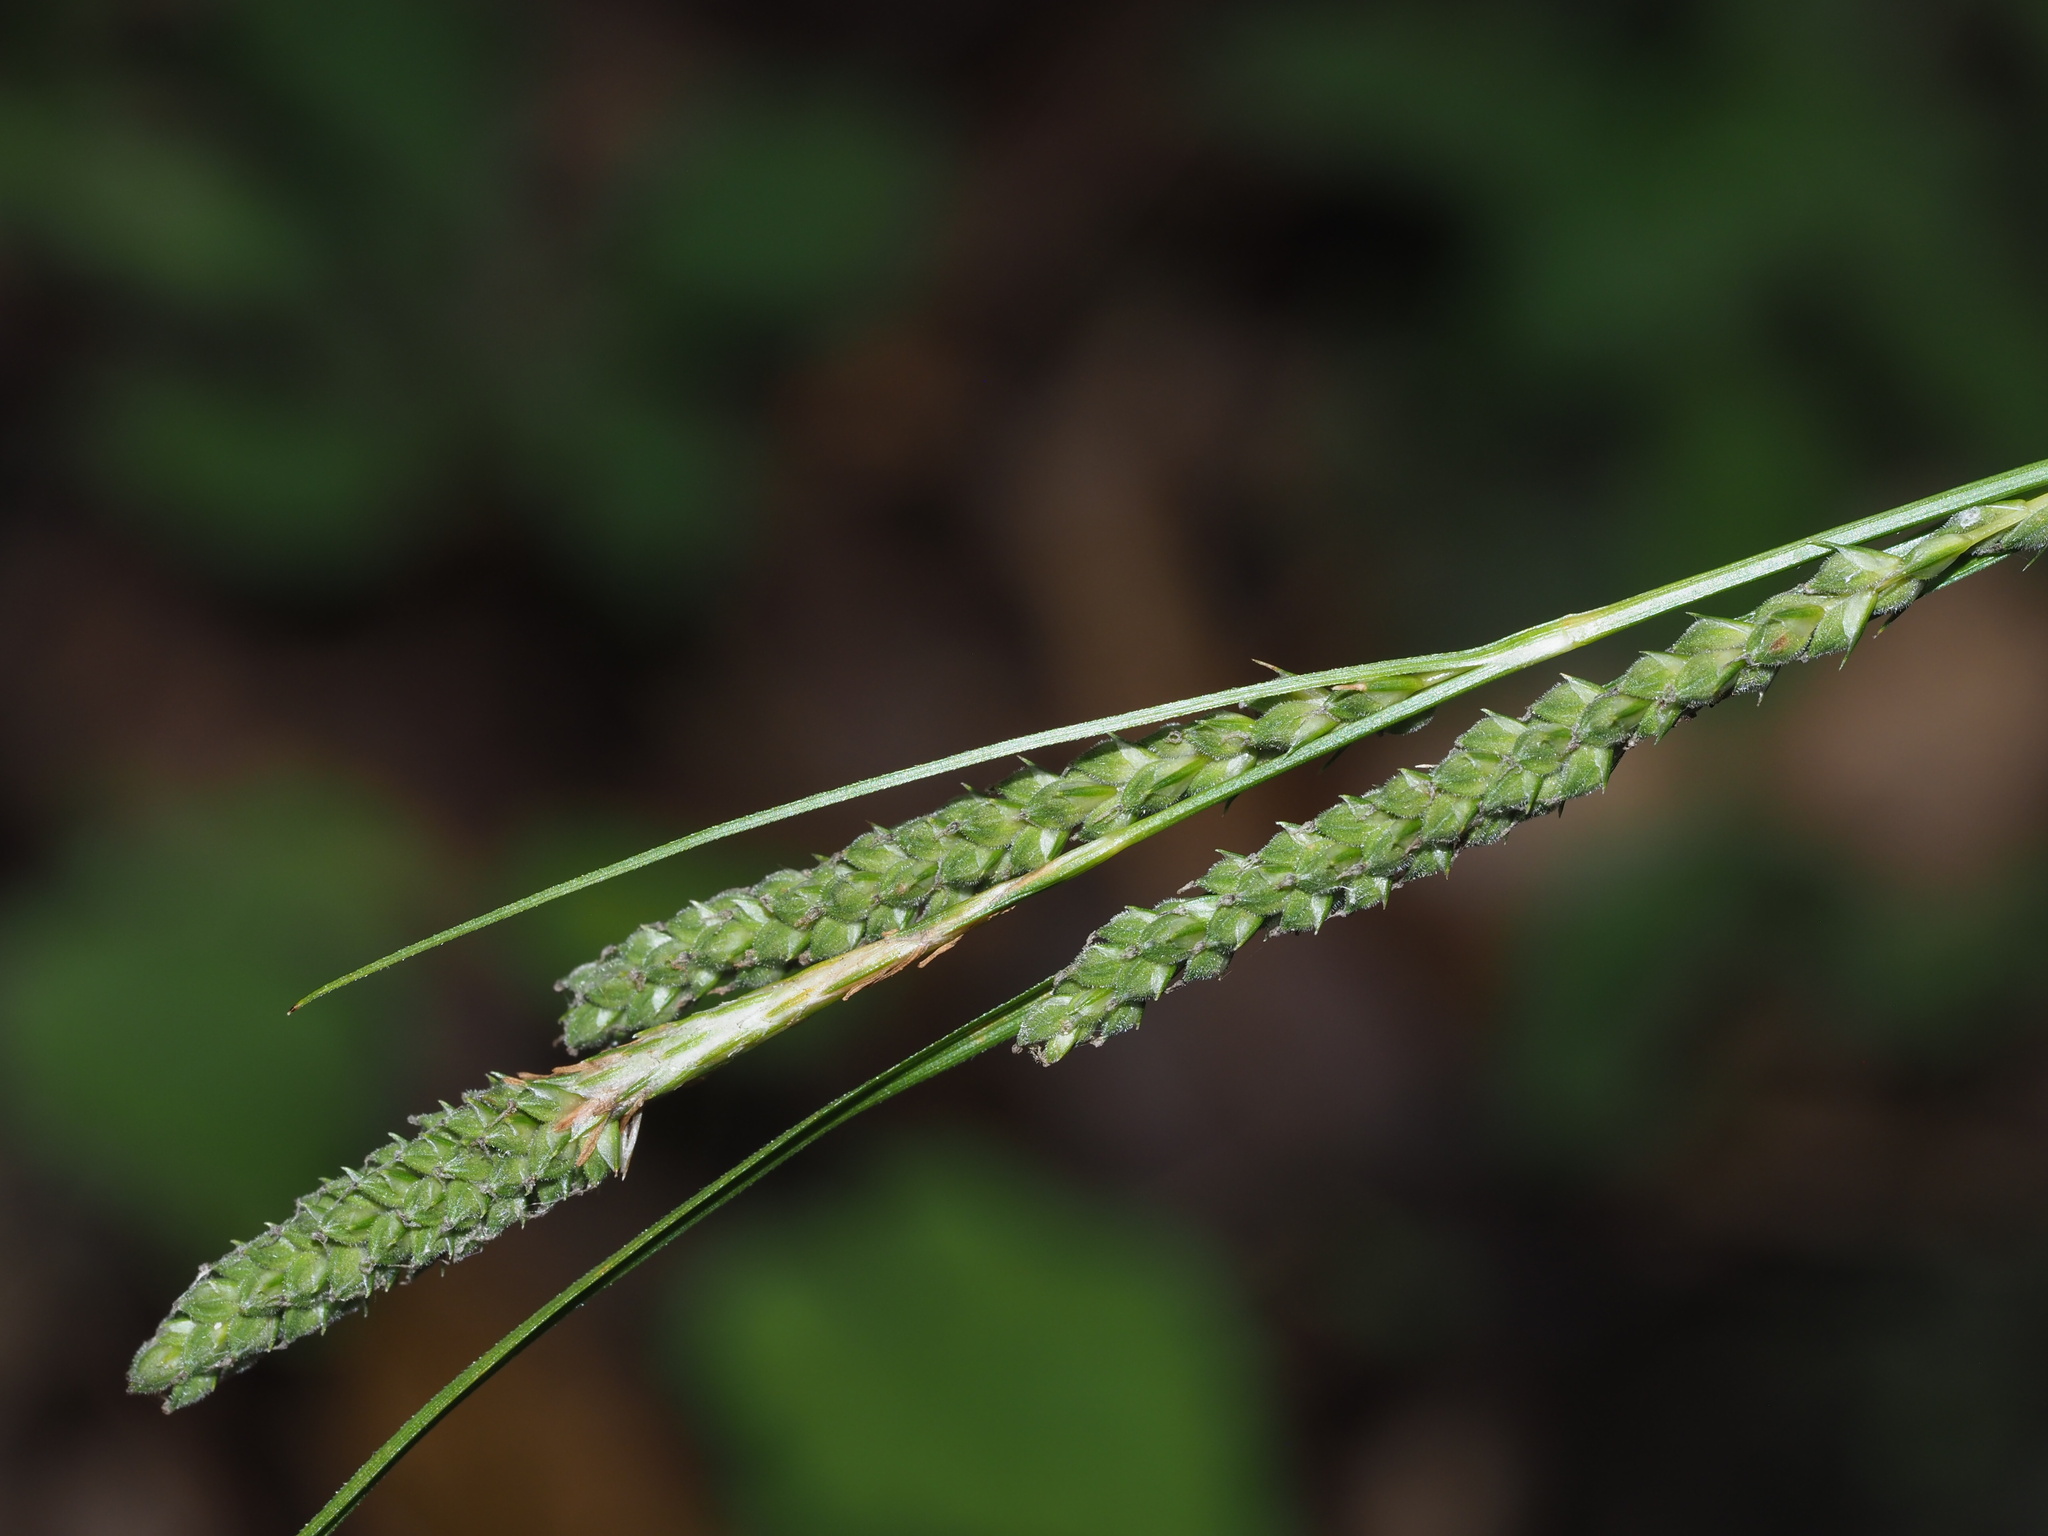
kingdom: Plantae
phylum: Tracheophyta
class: Liliopsida
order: Poales
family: Cyperaceae
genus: Carex
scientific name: Carex virescens
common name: Ribbed sedge
